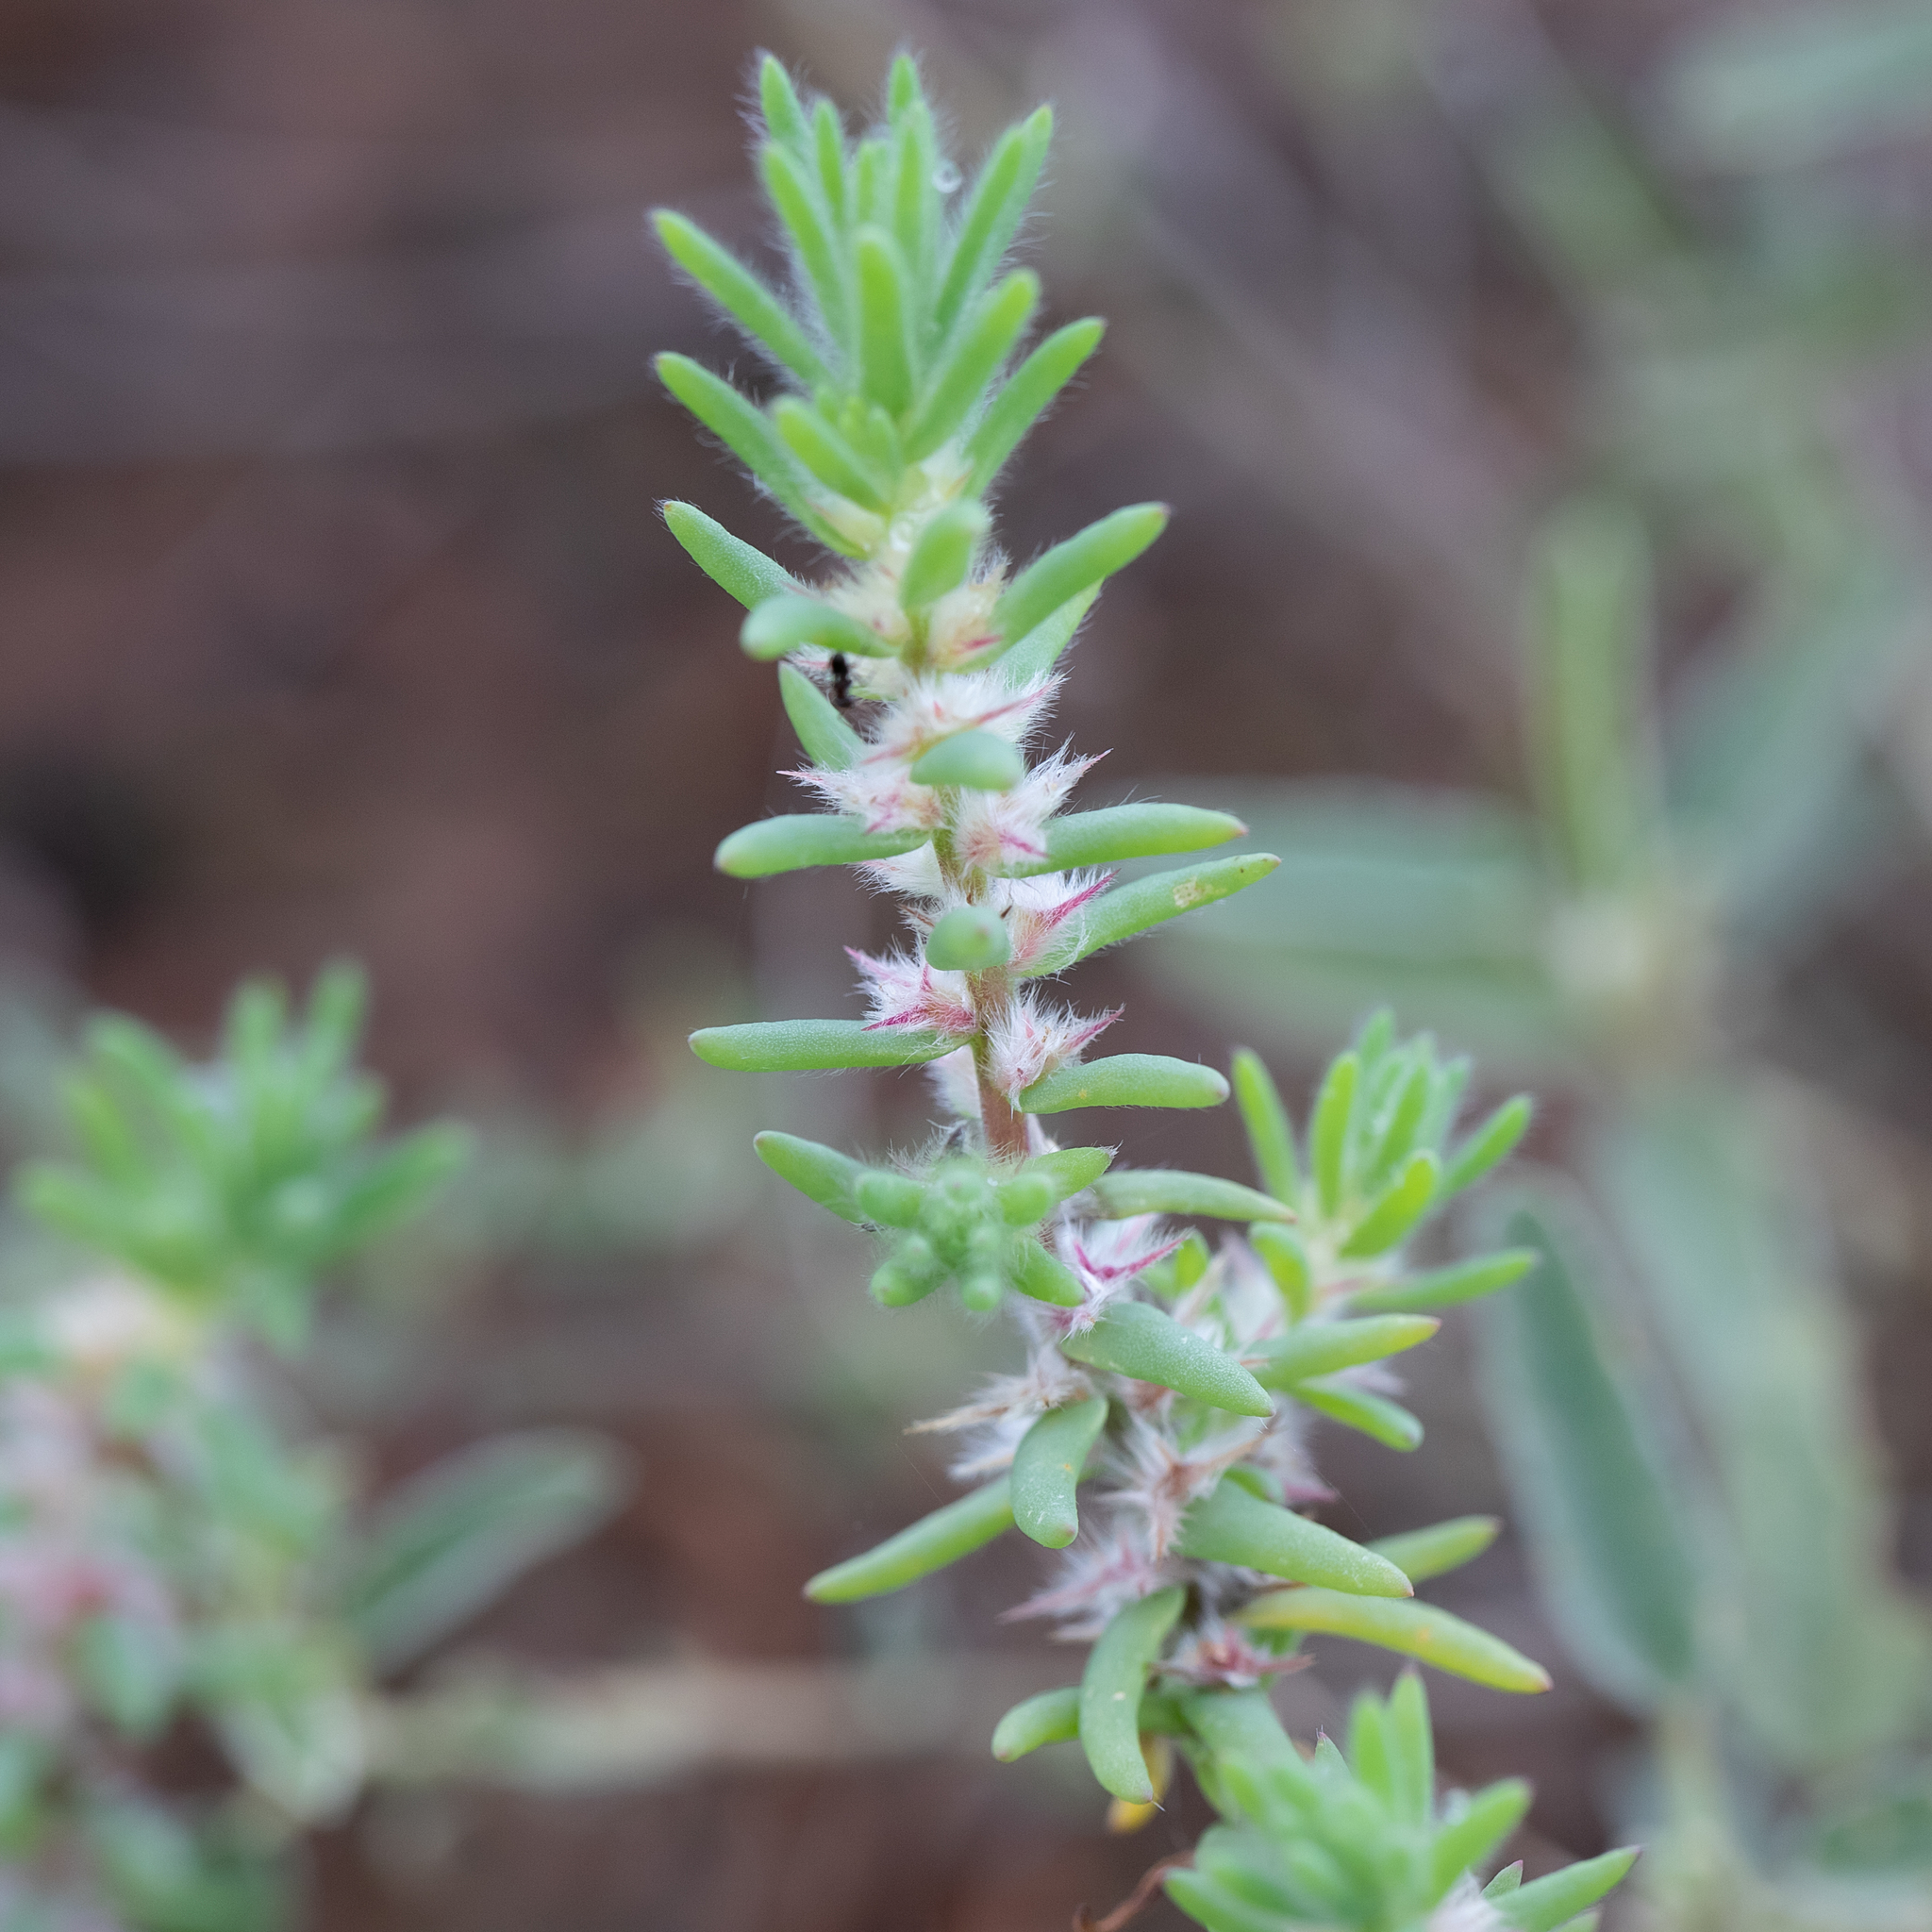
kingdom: Plantae
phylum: Tracheophyta
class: Magnoliopsida
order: Caryophyllales
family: Amaranthaceae
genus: Sclerolaena
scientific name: Sclerolaena lanicuspis
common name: Copperbur
